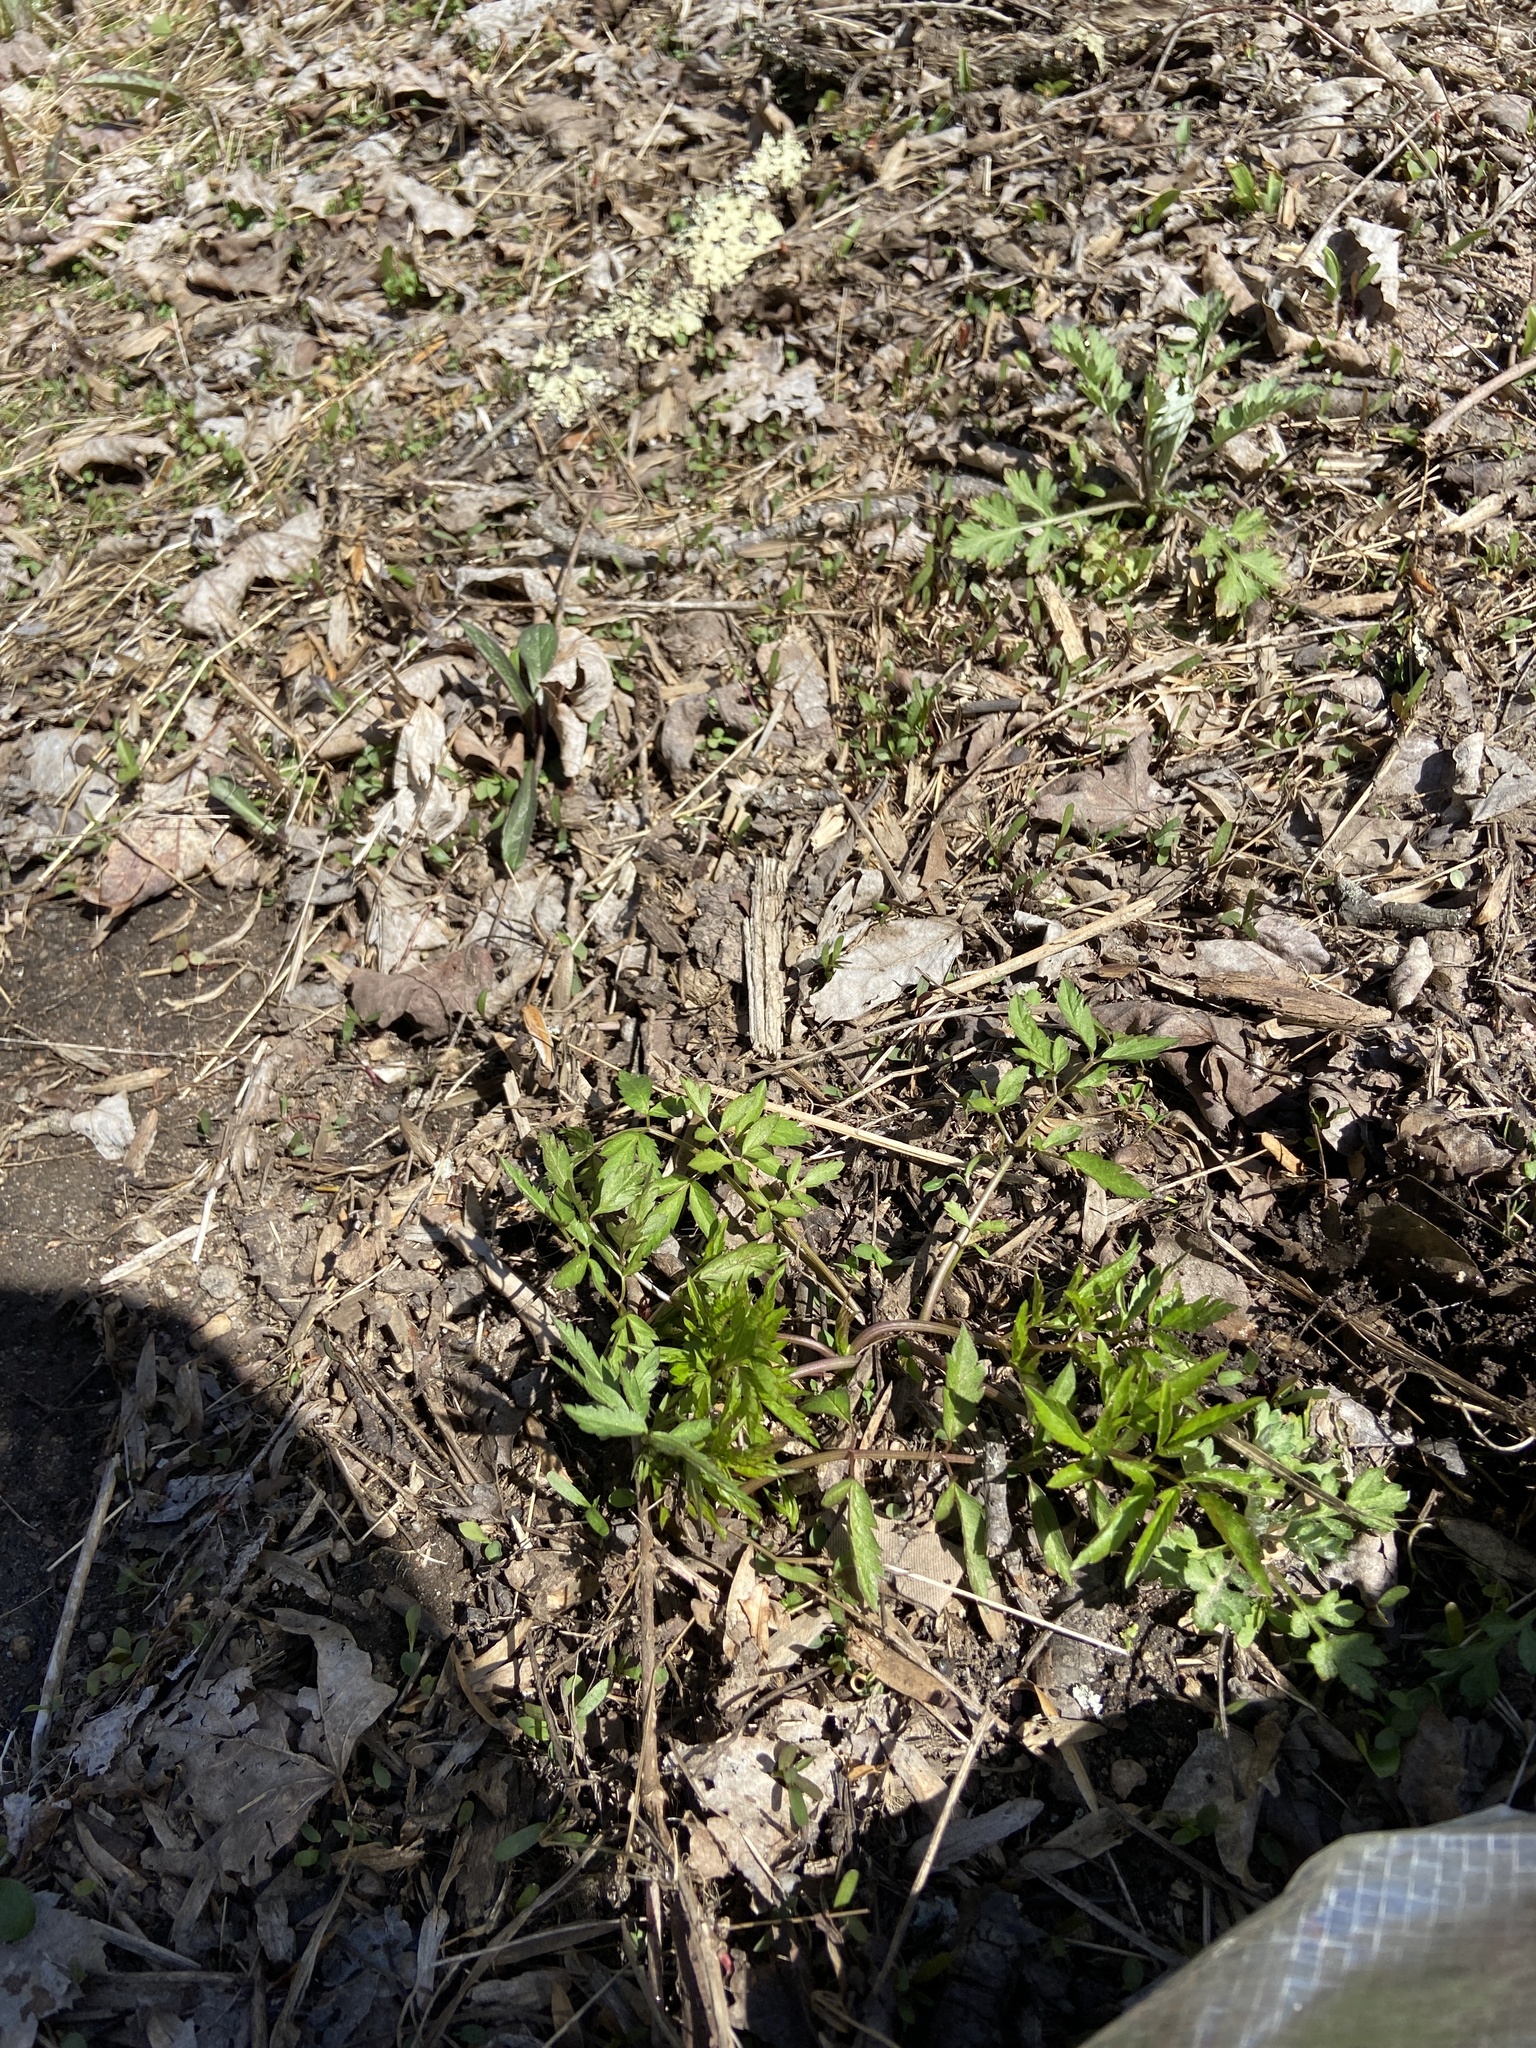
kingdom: Plantae
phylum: Tracheophyta
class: Magnoliopsida
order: Apiales
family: Apiaceae
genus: Cicuta
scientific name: Cicuta maculata
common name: Spotted cowbane
